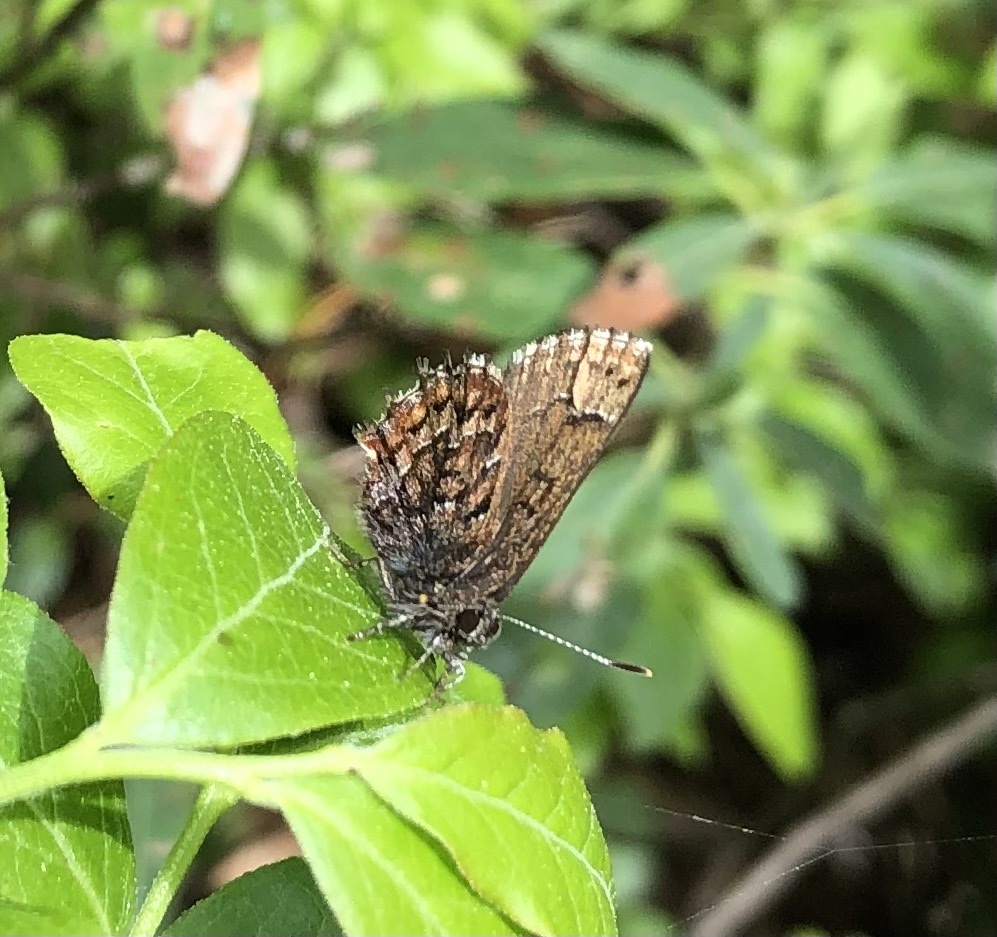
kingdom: Animalia
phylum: Arthropoda
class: Insecta
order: Lepidoptera
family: Lycaenidae
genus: Incisalia
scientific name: Incisalia niphon
